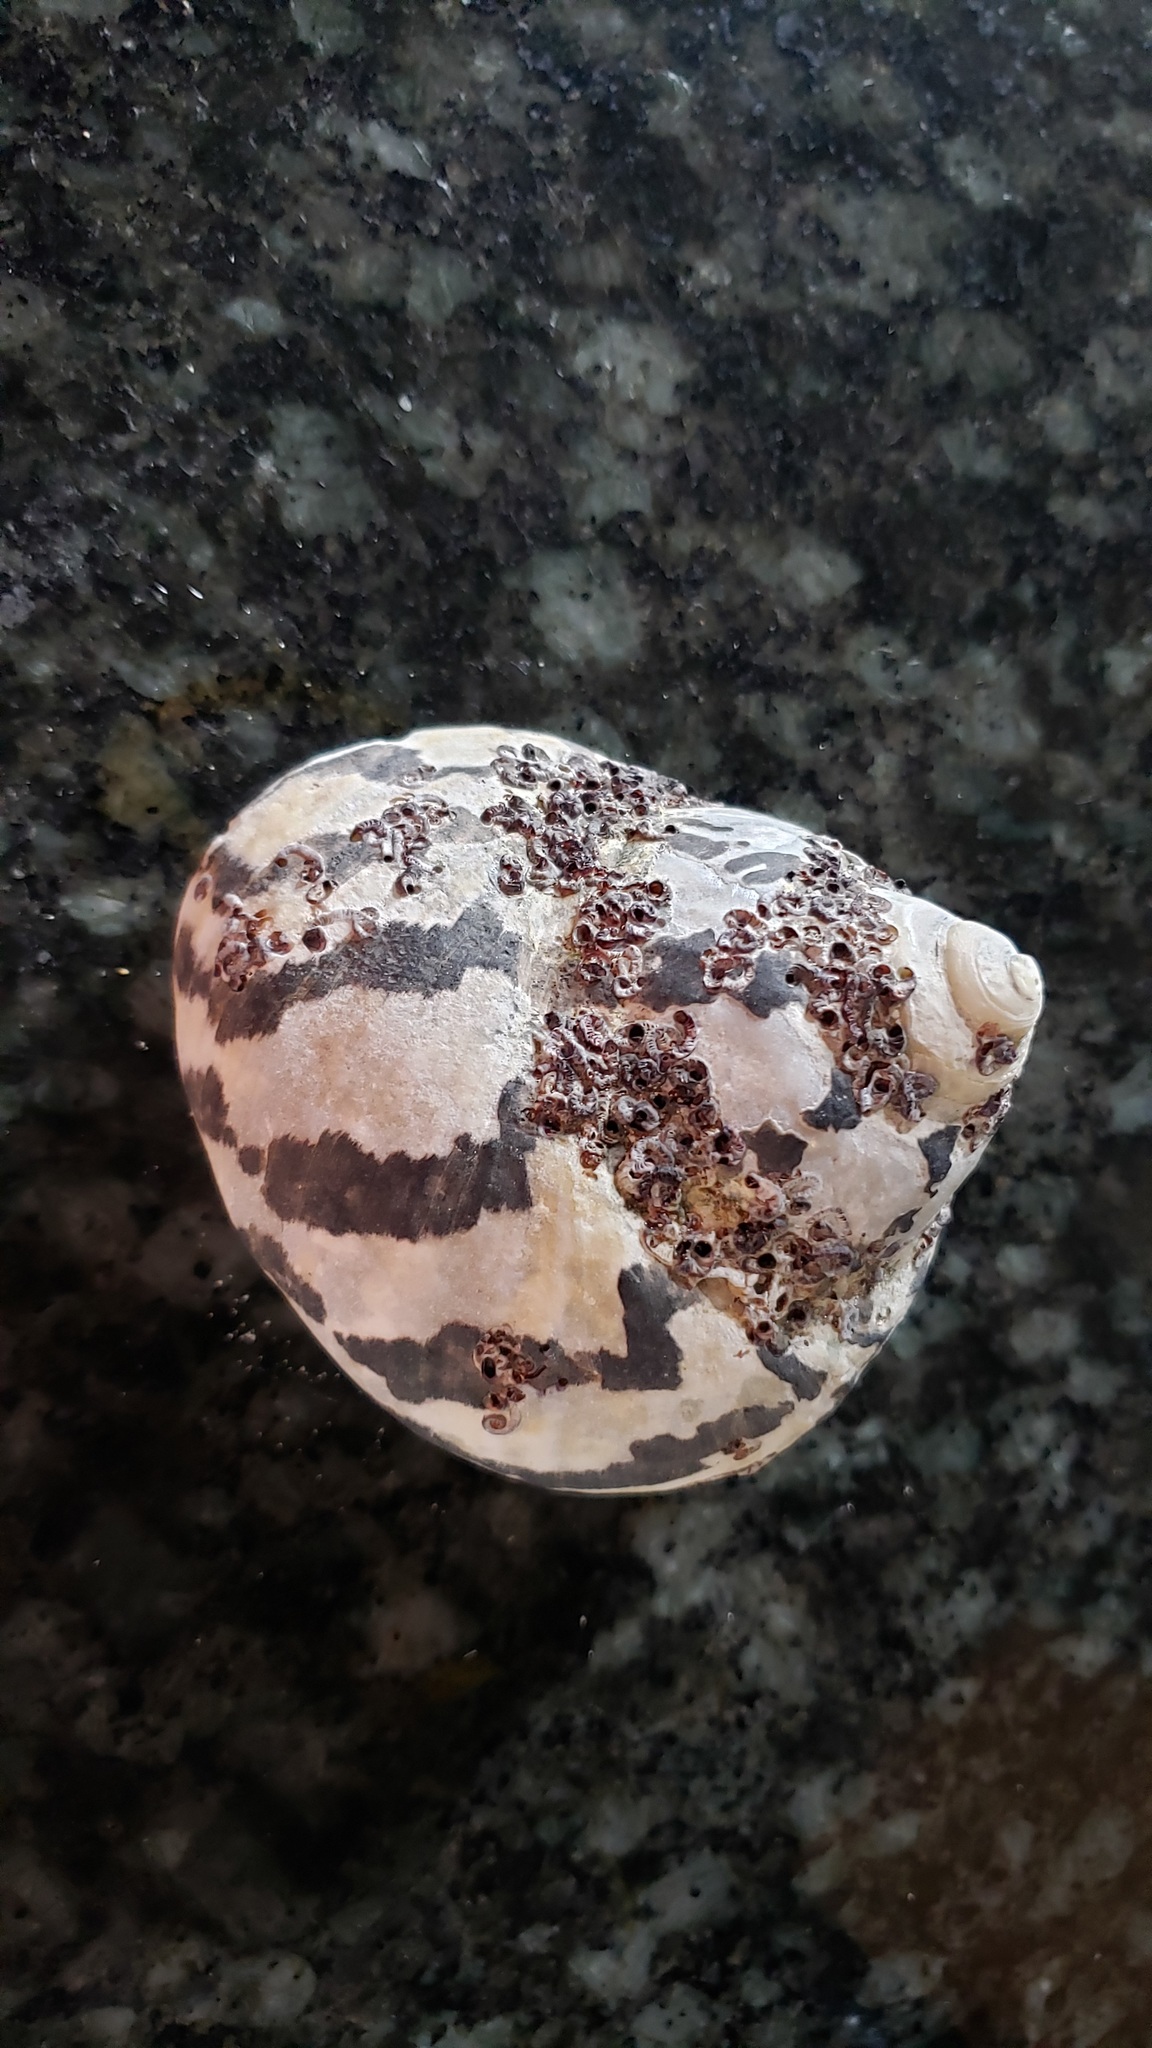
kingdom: Animalia
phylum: Mollusca
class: Gastropoda
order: Trochida
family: Tegulidae
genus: Cittarium
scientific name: Cittarium pica
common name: West indian topshell
